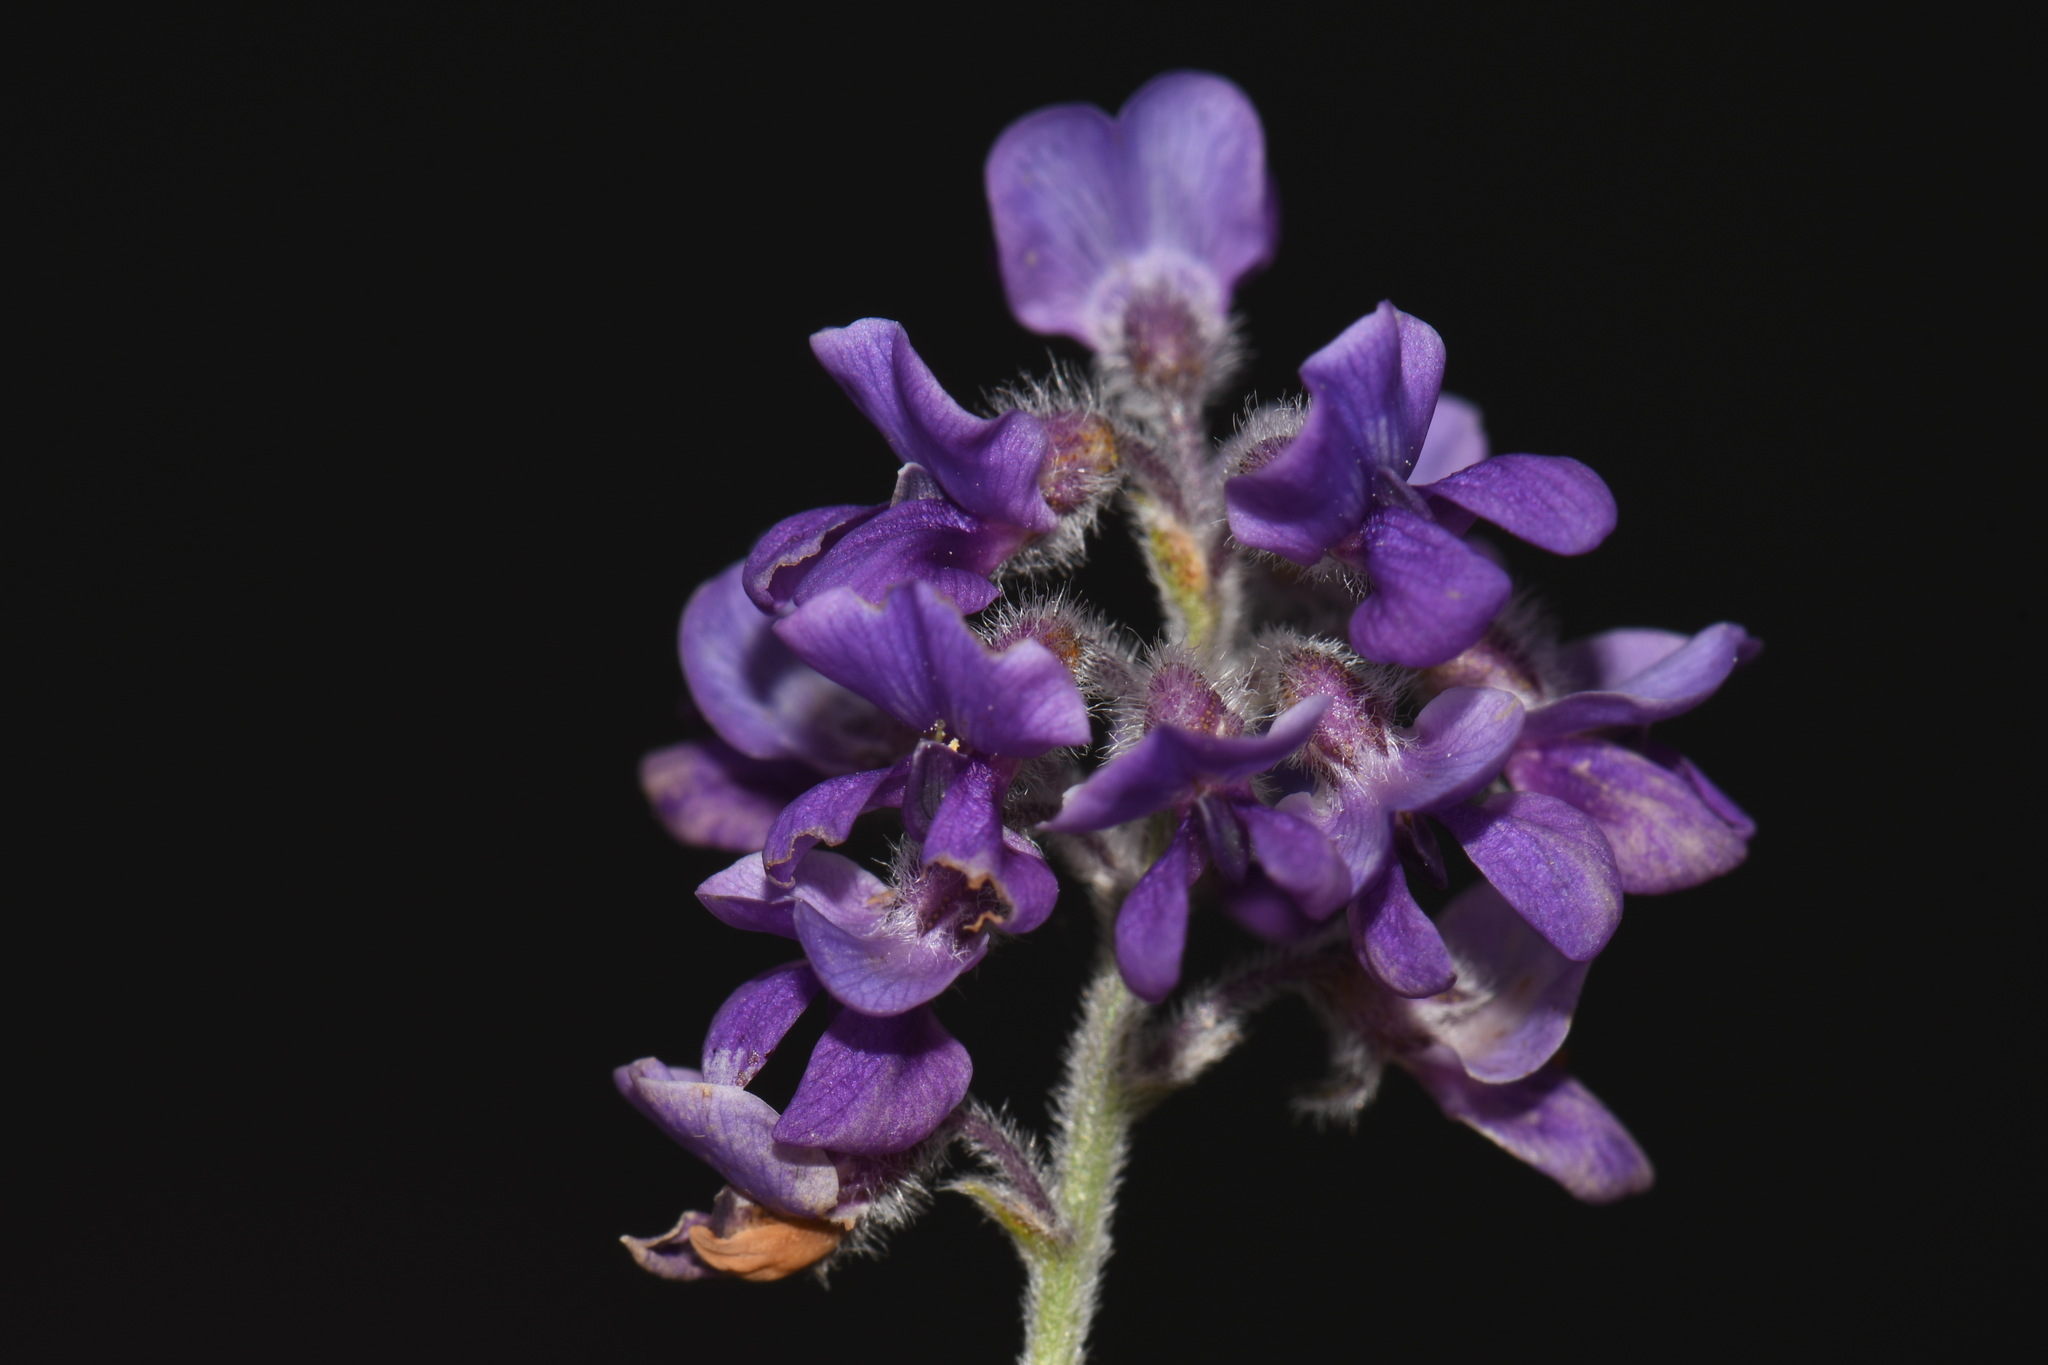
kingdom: Plantae
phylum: Tracheophyta
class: Magnoliopsida
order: Fabales
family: Fabaceae
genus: Pediomelum
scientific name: Pediomelum tenuiflorum
